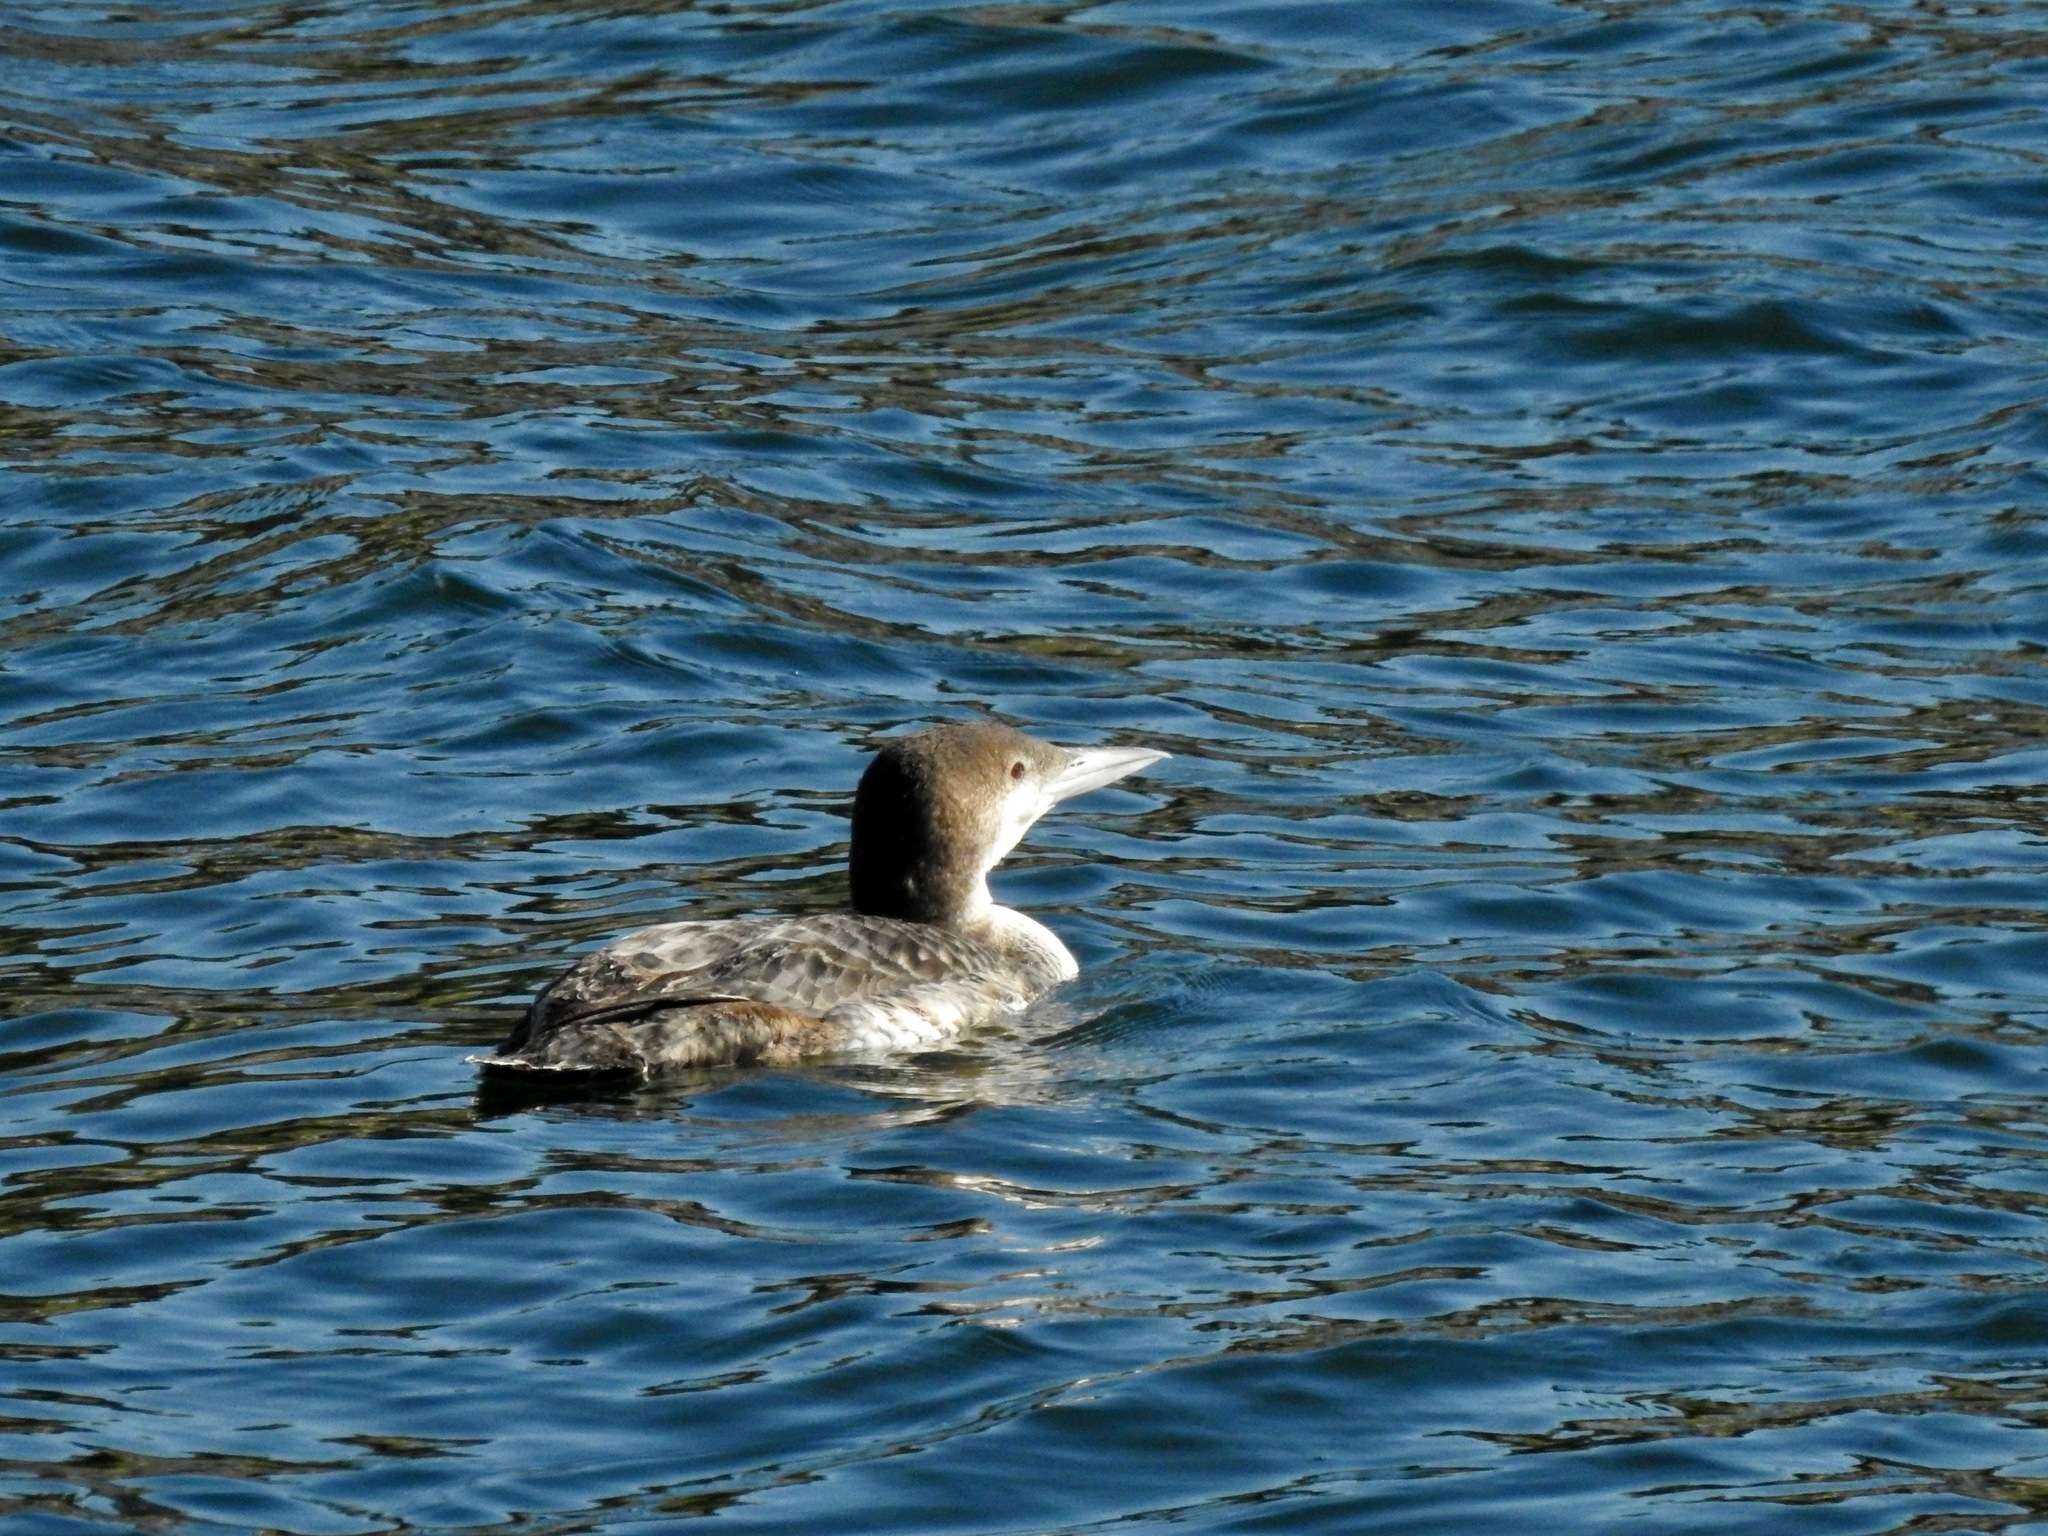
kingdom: Animalia
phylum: Chordata
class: Aves
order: Gaviiformes
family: Gaviidae
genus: Gavia
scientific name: Gavia immer
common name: Common loon
